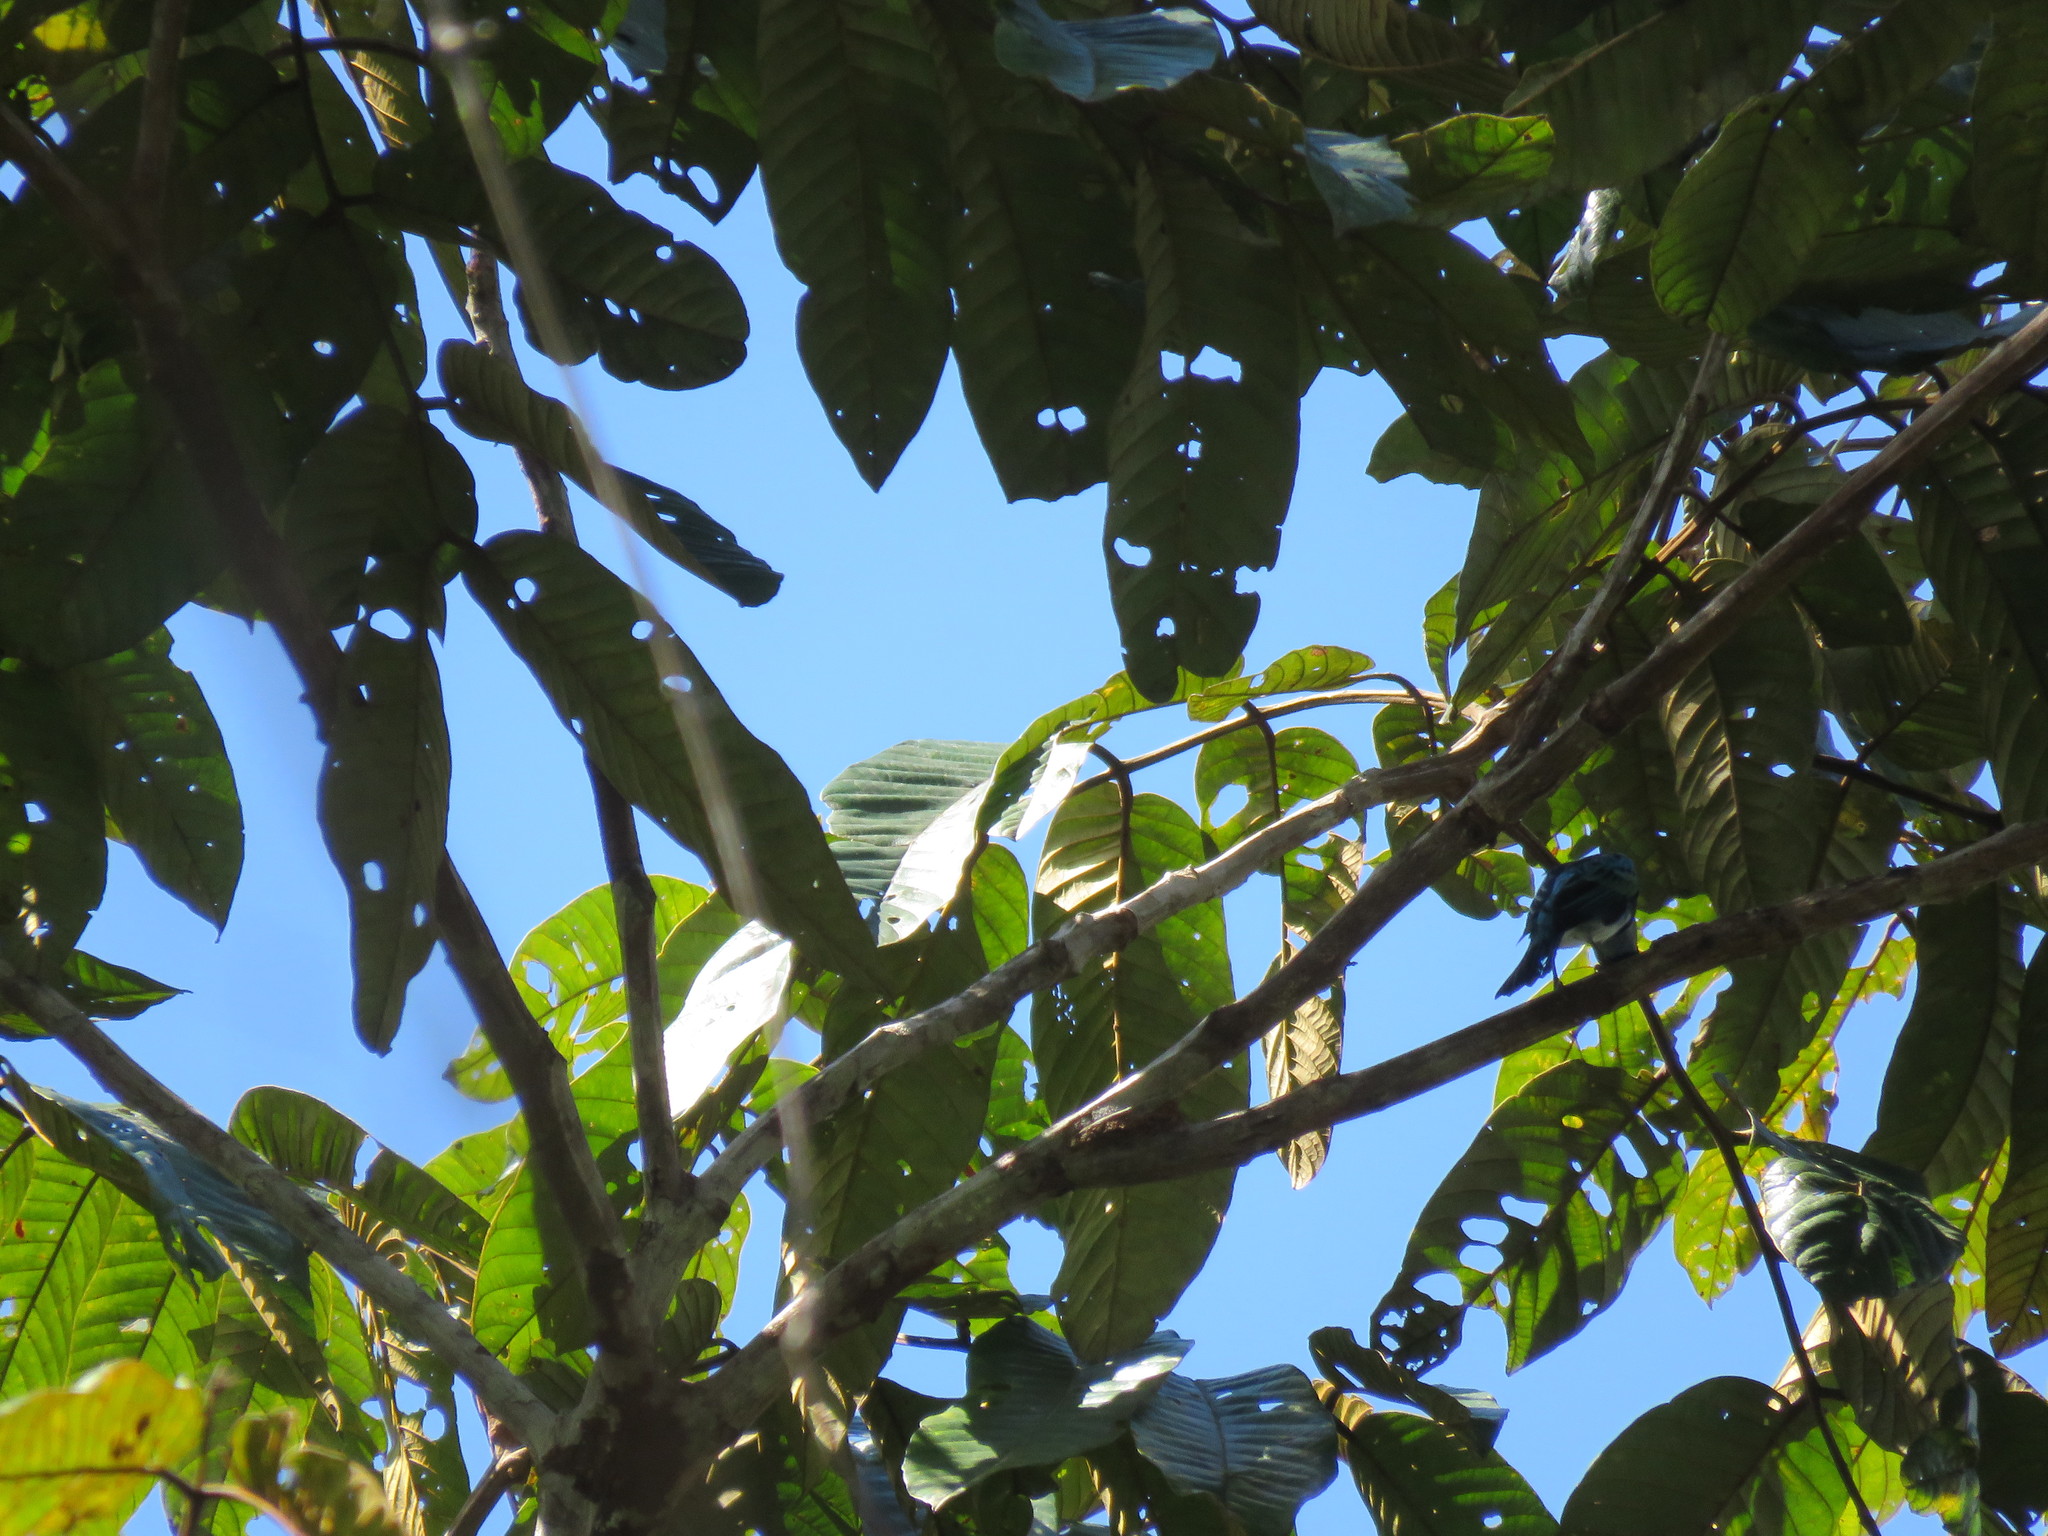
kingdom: Animalia
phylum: Chordata
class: Aves
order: Passeriformes
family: Thraupidae
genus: Stilpnia
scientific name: Stilpnia nigrocincta
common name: Masked tanager
